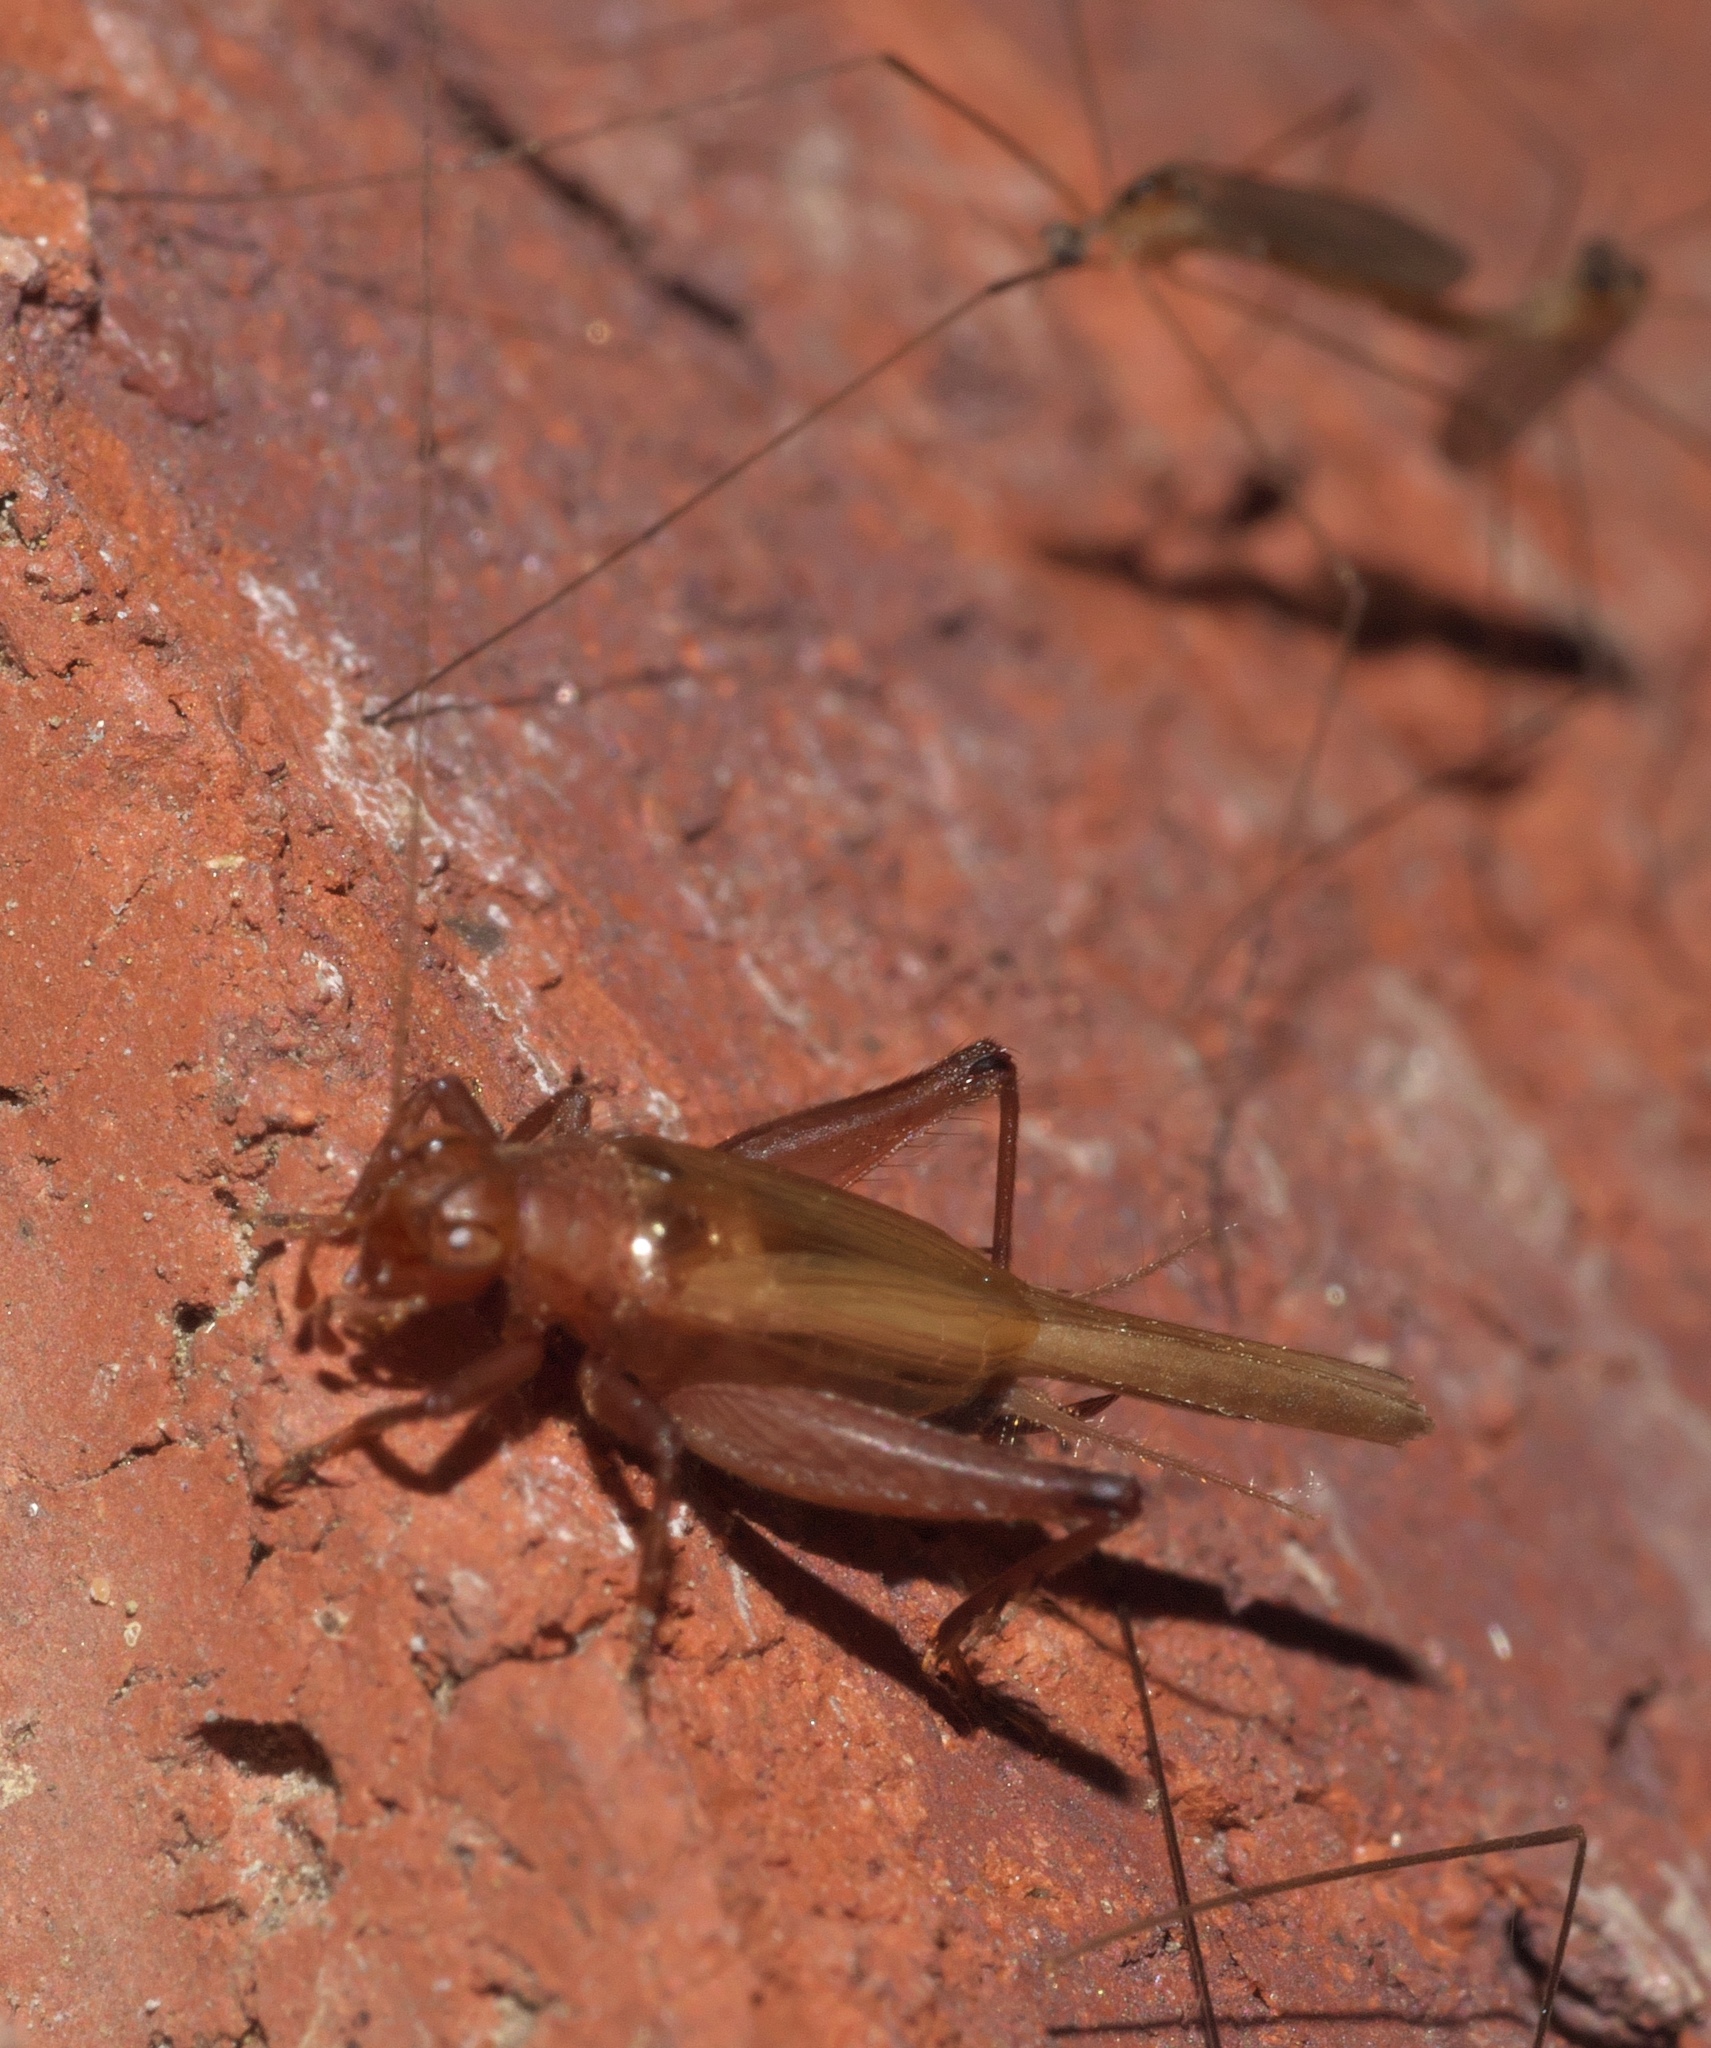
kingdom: Animalia
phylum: Arthropoda
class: Insecta
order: Orthoptera
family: Trigonidiidae
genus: Anaxipha
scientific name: Anaxipha vernalis
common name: Spring trig
